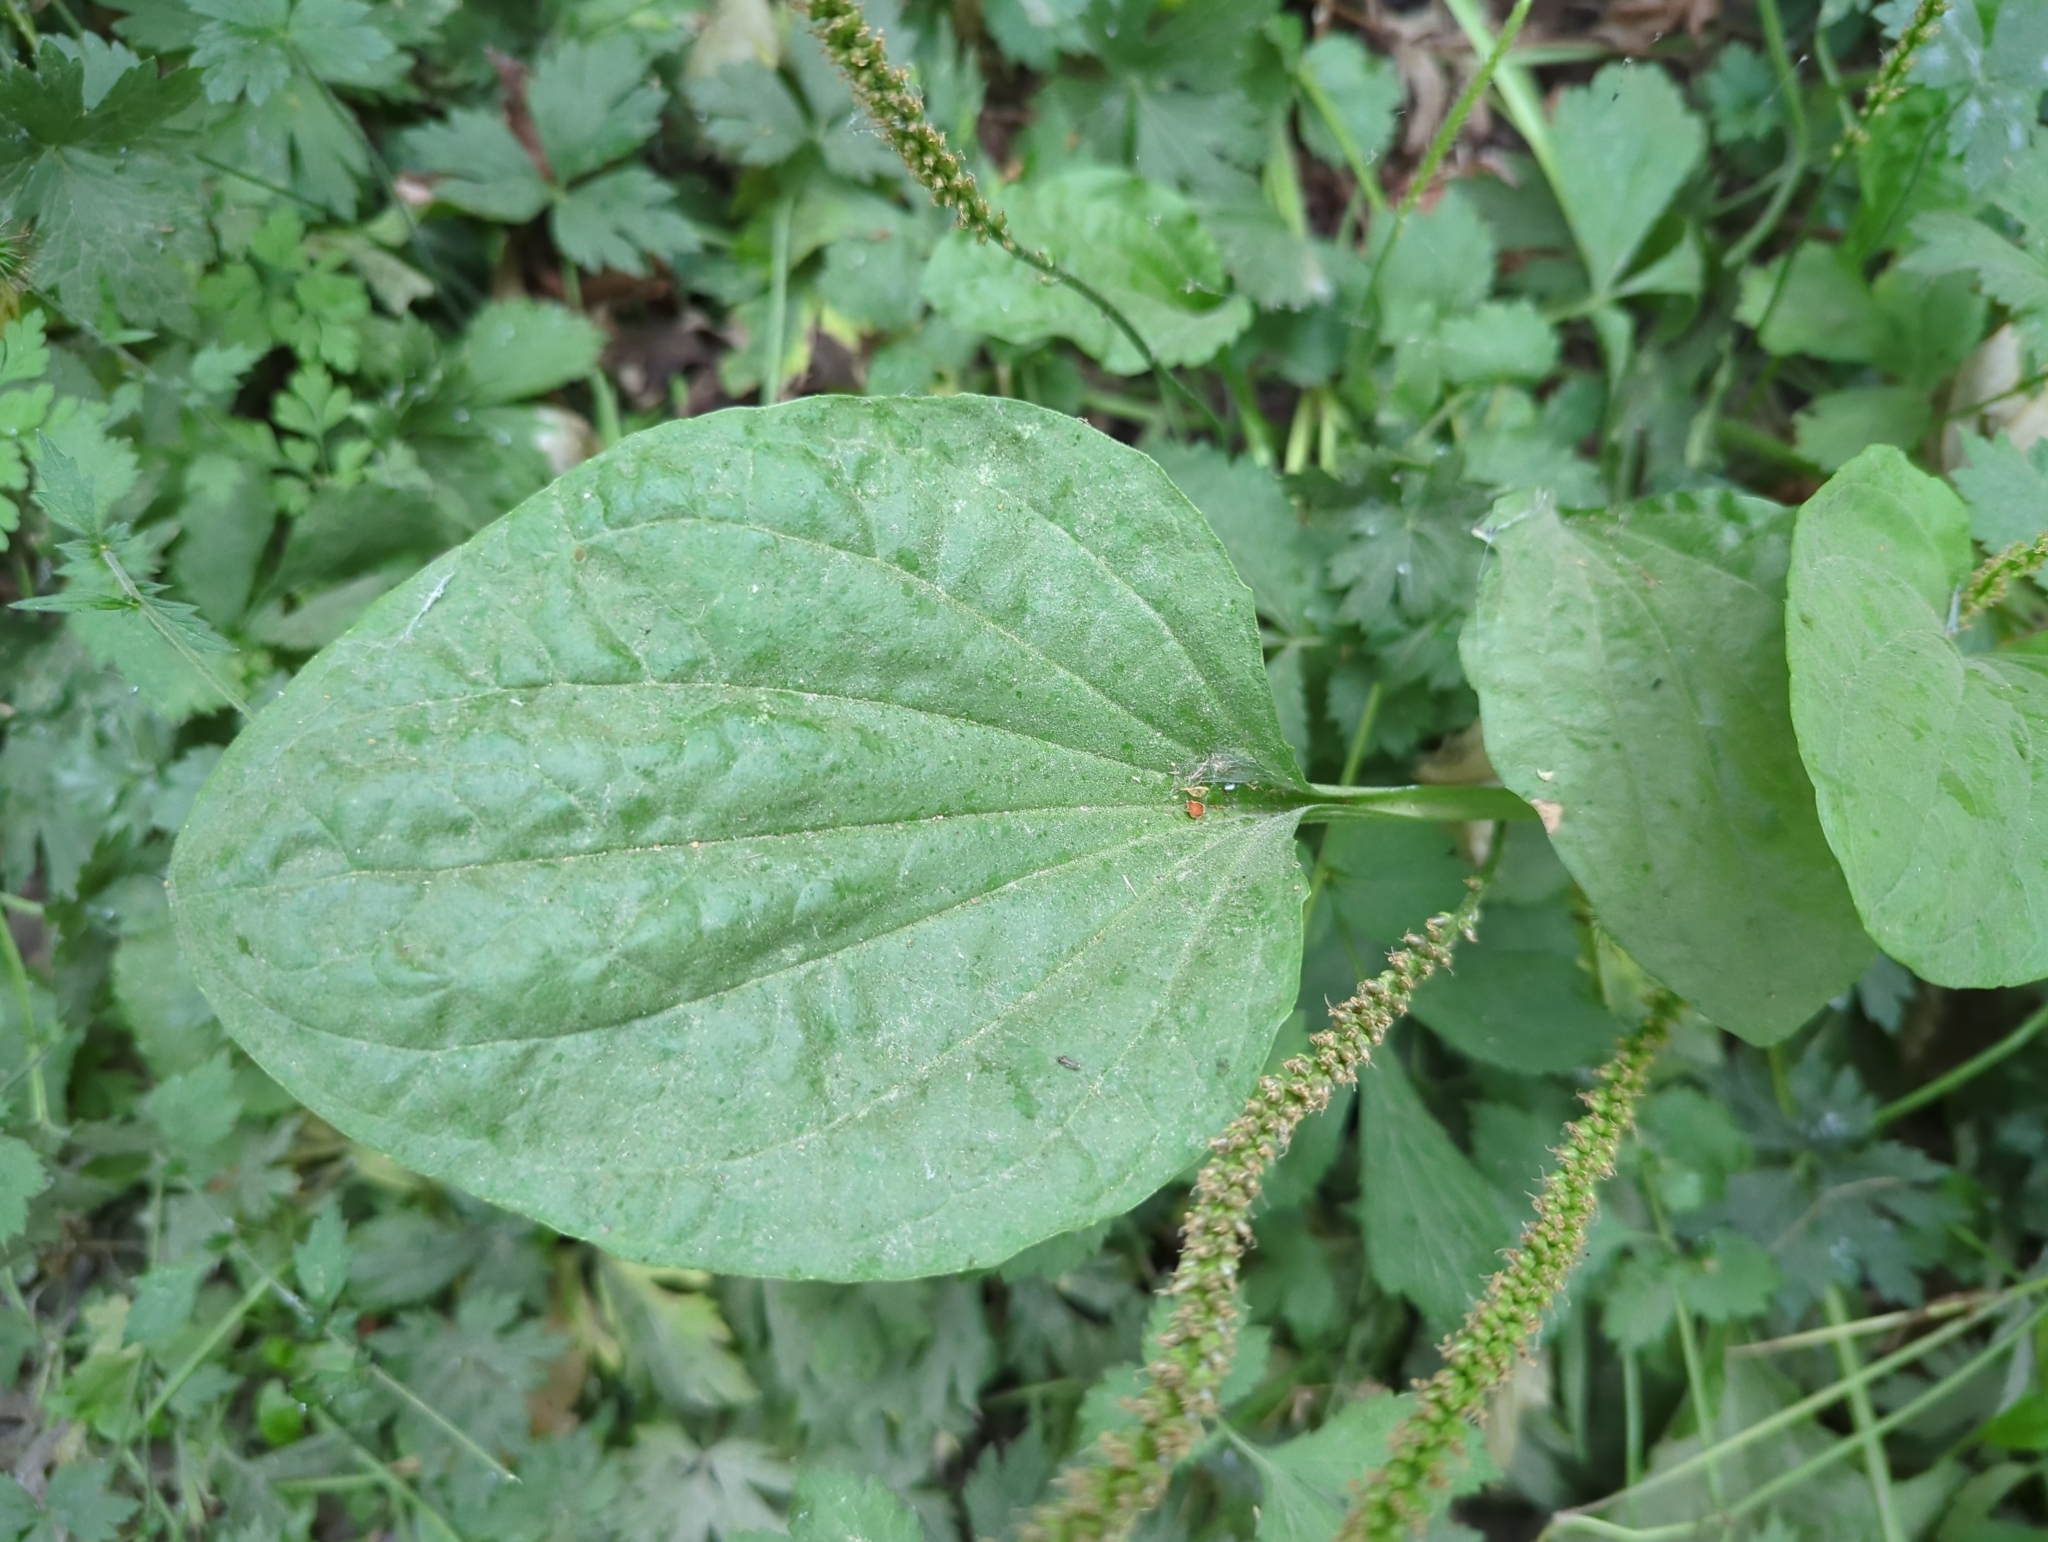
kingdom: Plantae
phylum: Tracheophyta
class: Magnoliopsida
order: Lamiales
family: Plantaginaceae
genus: Plantago
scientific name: Plantago major
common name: Common plantain
